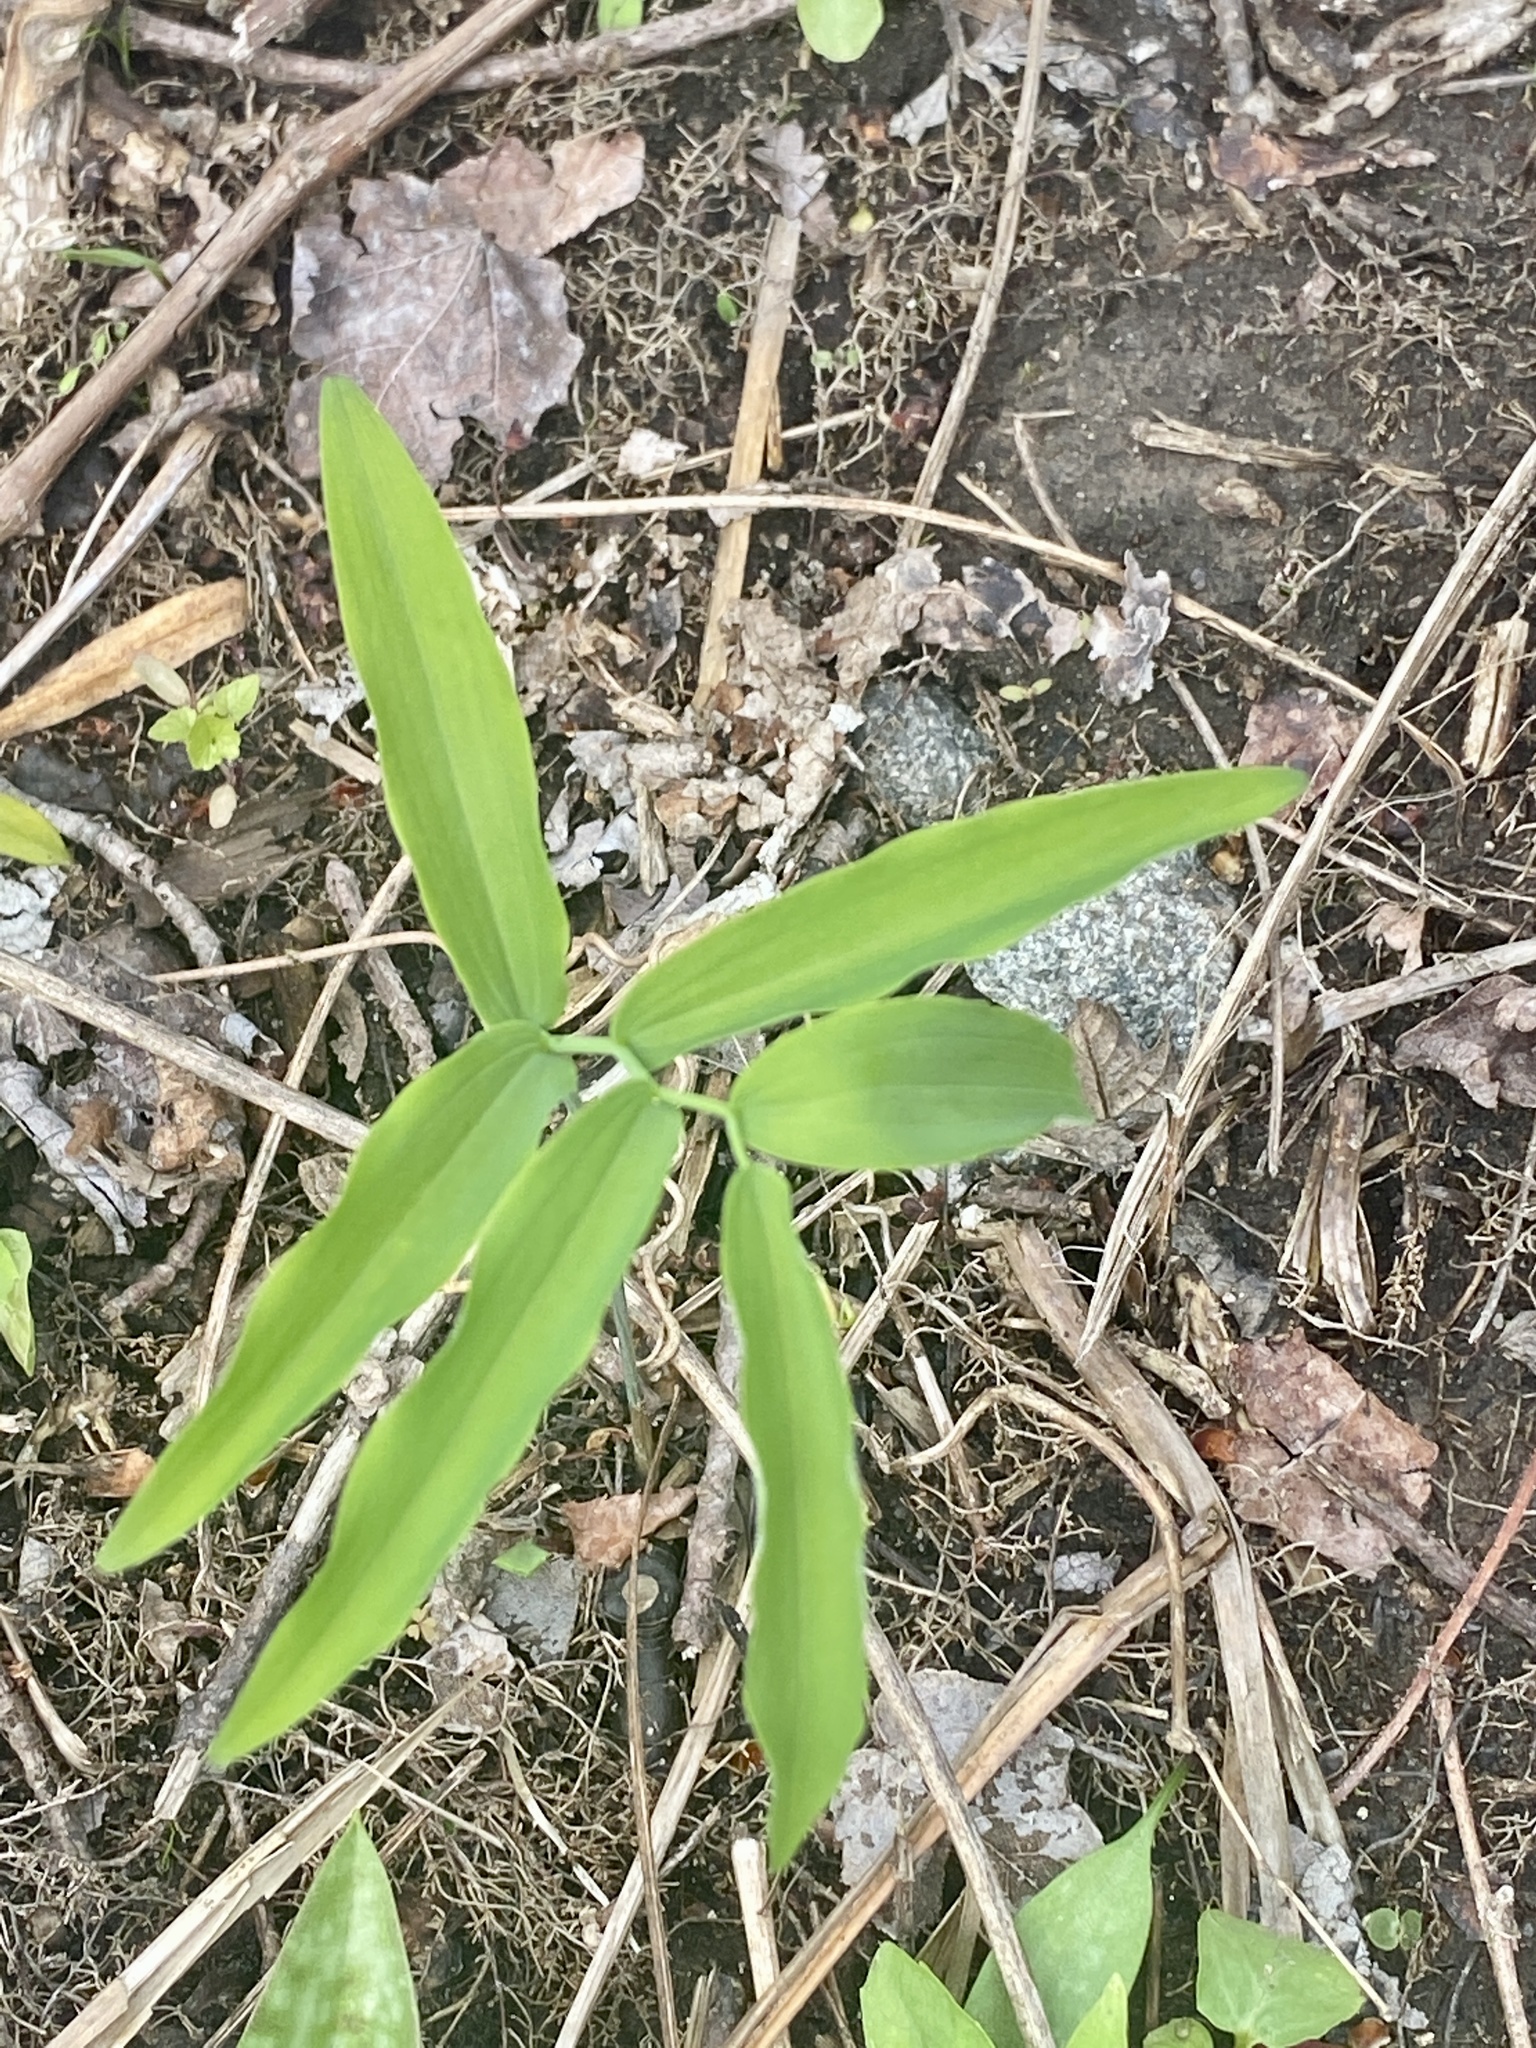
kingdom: Plantae
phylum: Tracheophyta
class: Liliopsida
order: Asparagales
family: Asparagaceae
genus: Polygonatum
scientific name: Polygonatum pubescens
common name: Downy solomon's seal
